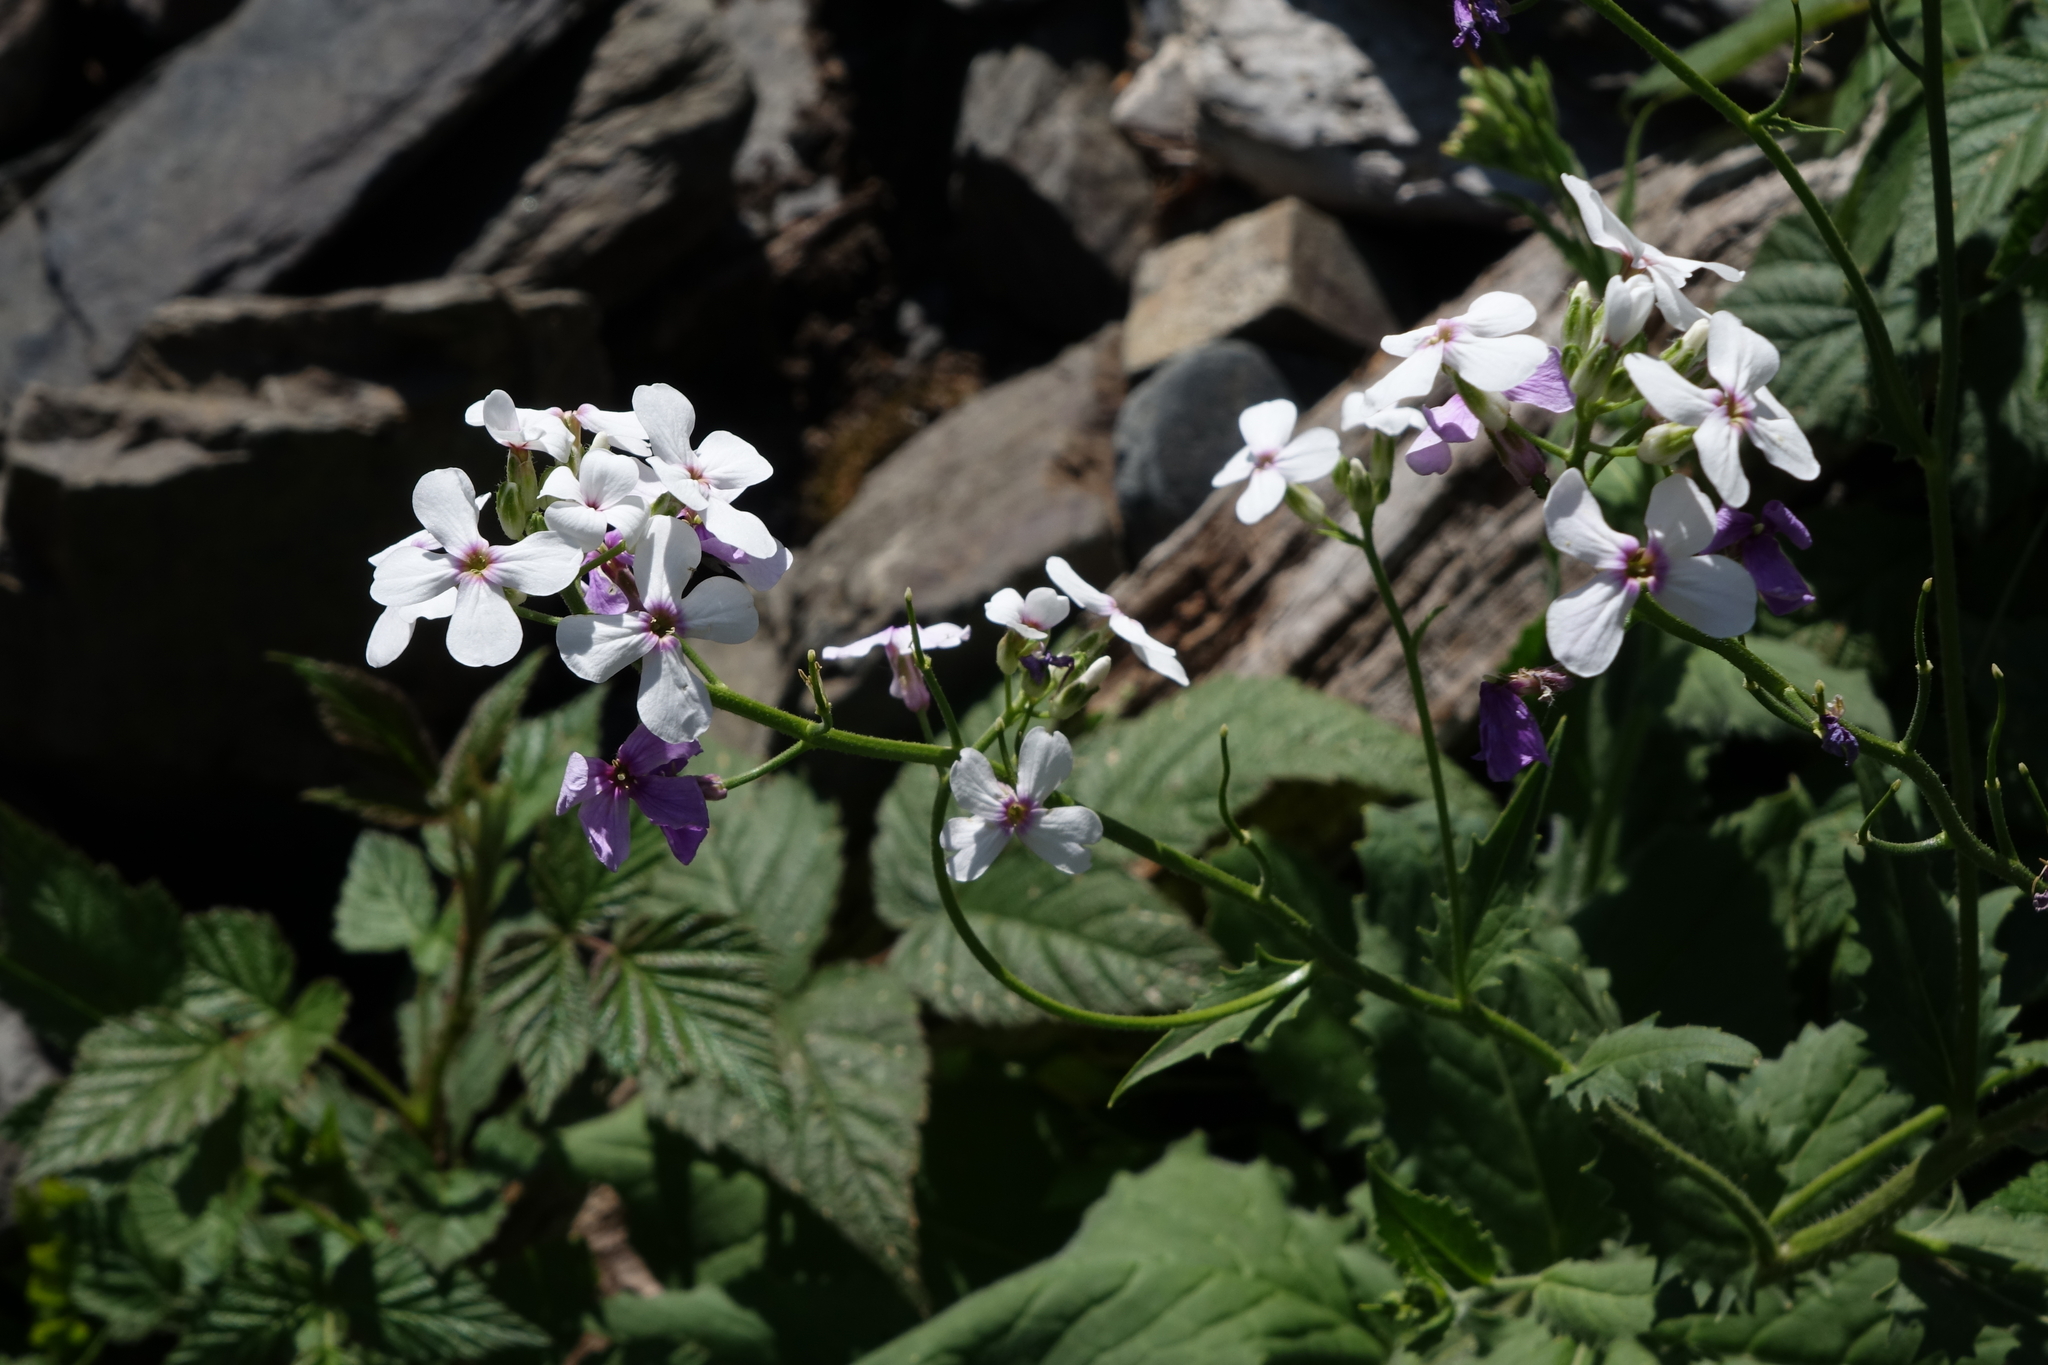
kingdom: Plantae
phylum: Tracheophyta
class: Magnoliopsida
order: Brassicales
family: Brassicaceae
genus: Hesperis
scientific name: Hesperis matronalis
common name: Dame's-violet
